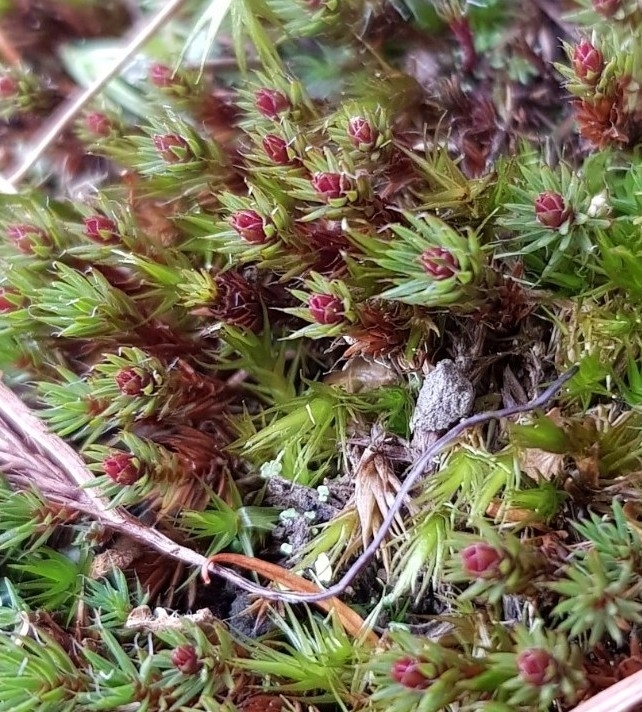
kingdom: Plantae
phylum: Bryophyta
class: Polytrichopsida
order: Polytrichales
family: Polytrichaceae
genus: Polytrichum
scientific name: Polytrichum piliferum
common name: Bristly haircap
